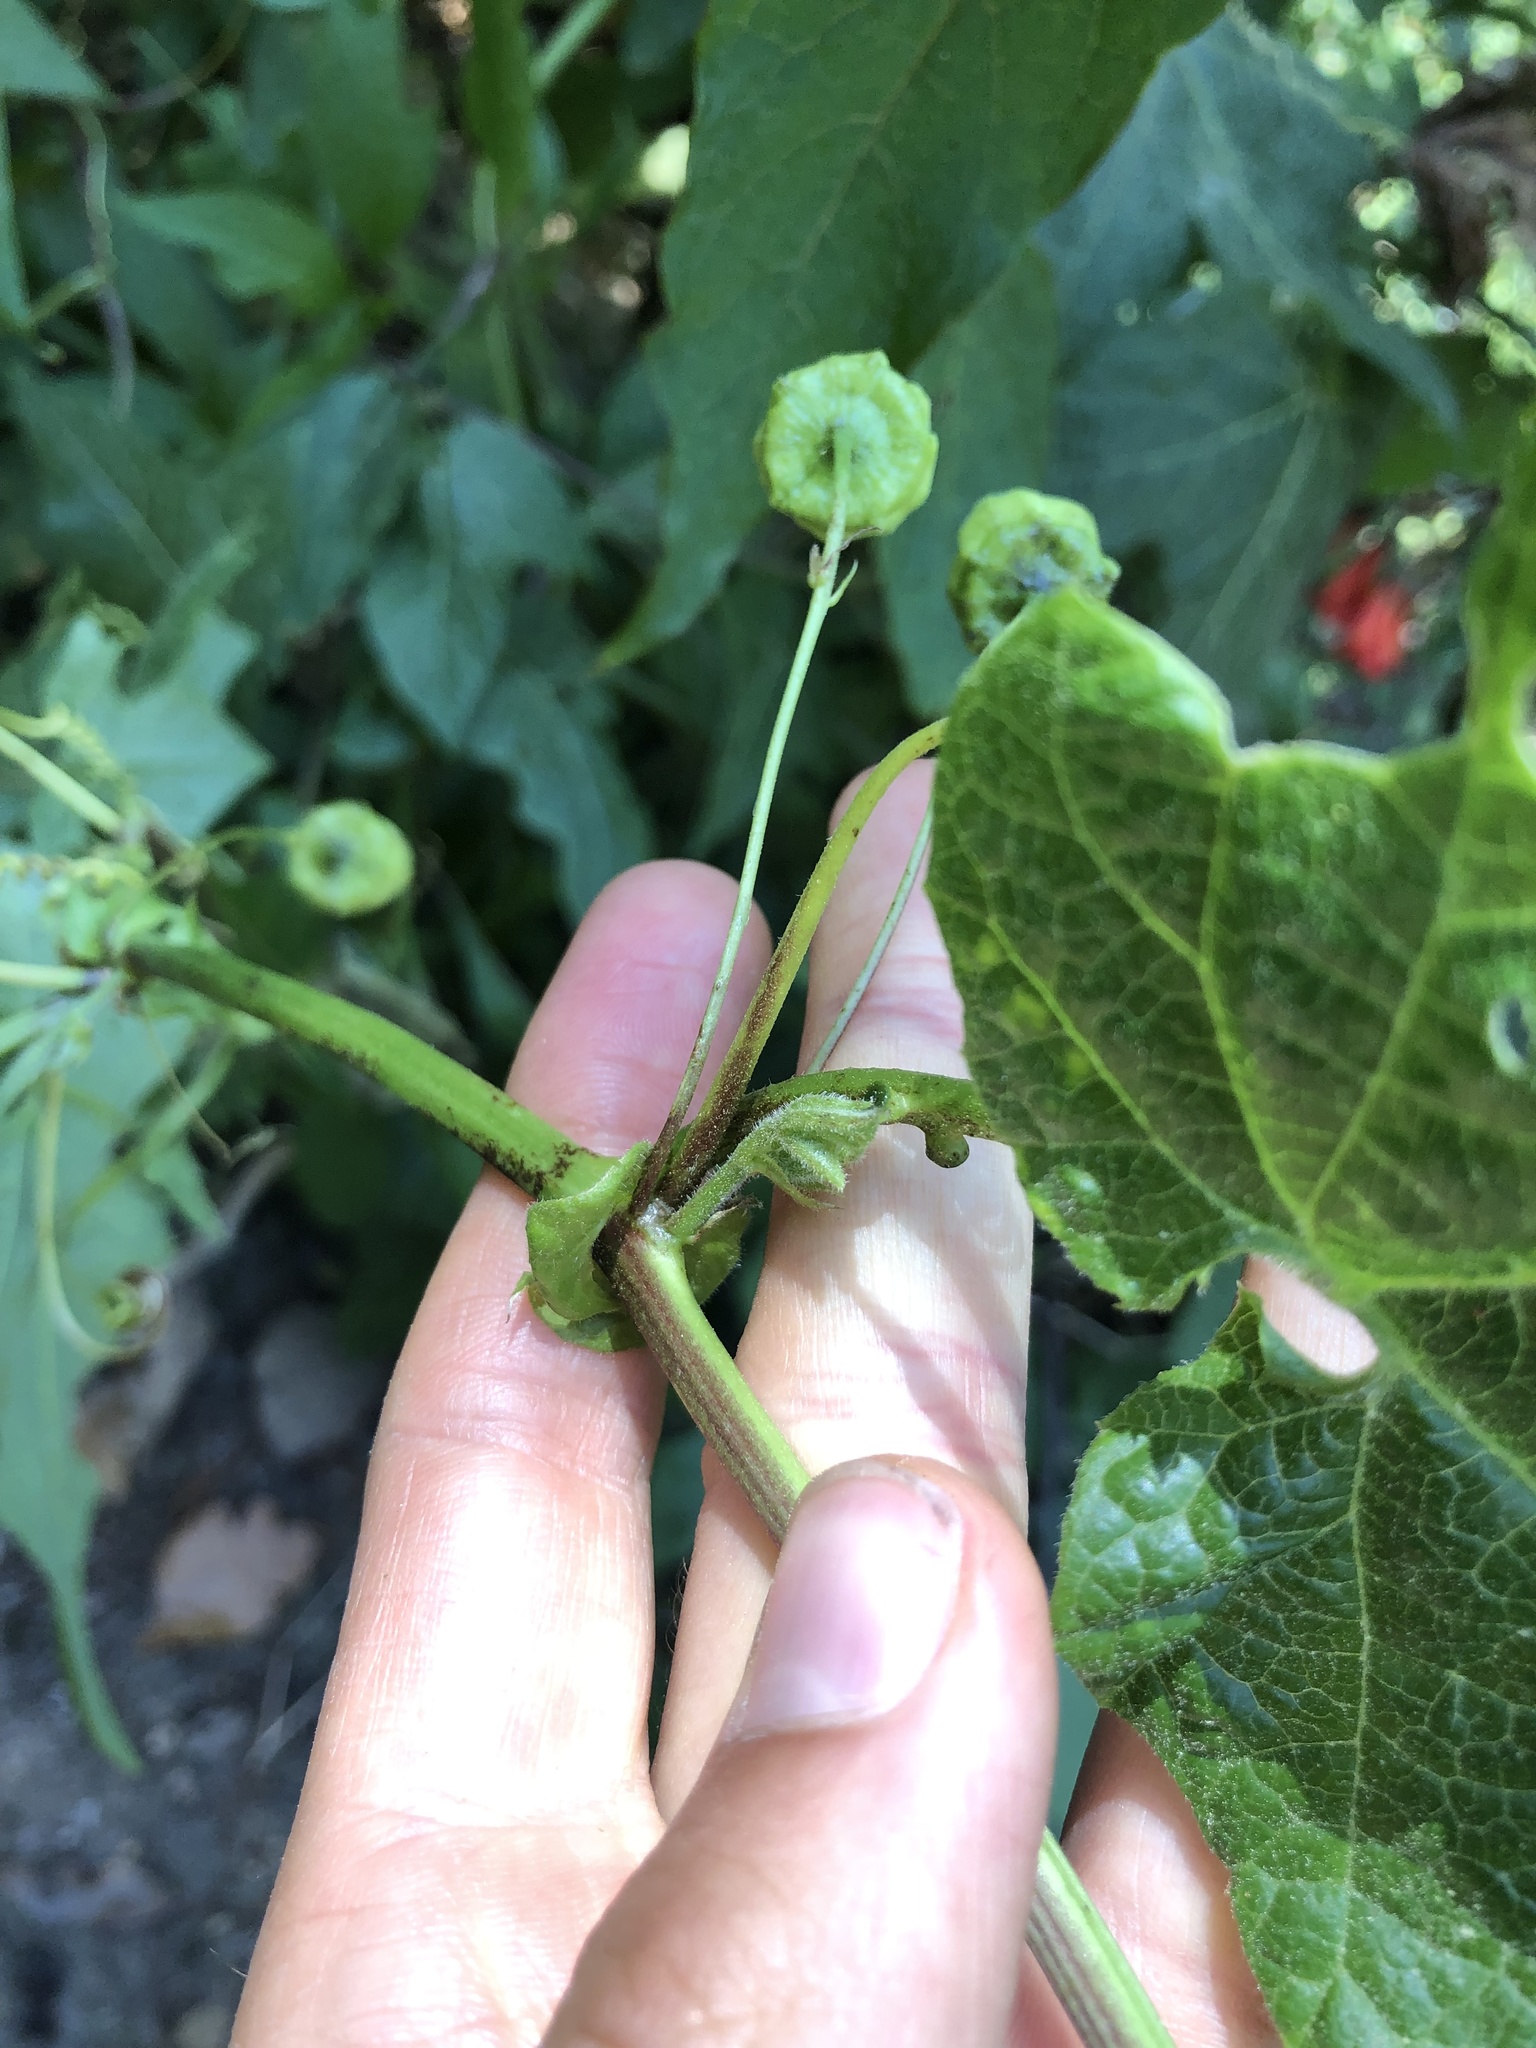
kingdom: Plantae
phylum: Tracheophyta
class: Magnoliopsida
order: Malpighiales
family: Passifloraceae
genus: Passiflora
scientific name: Passiflora oaxacensis
